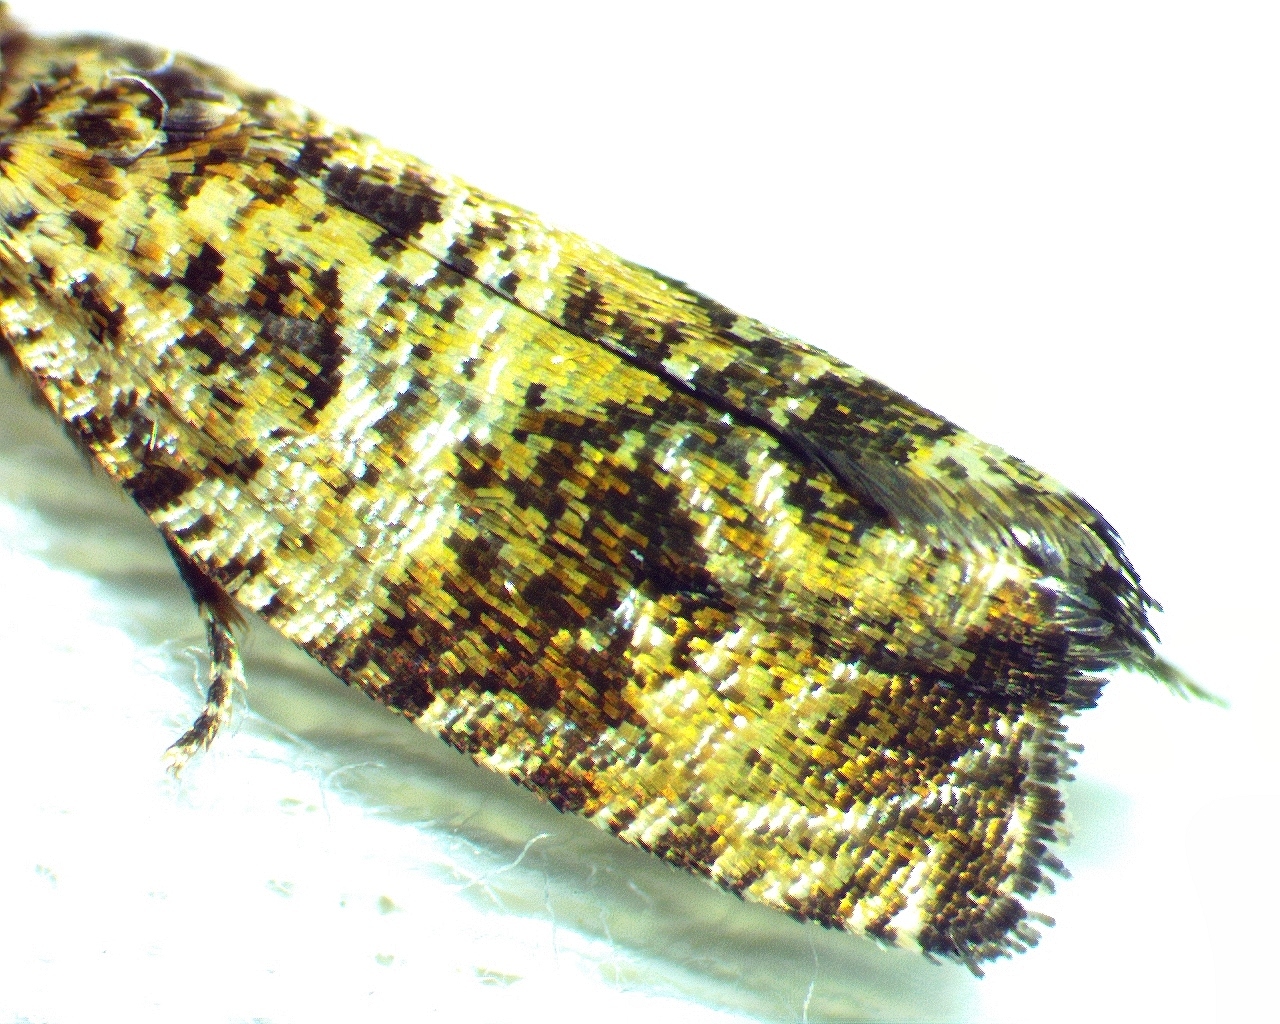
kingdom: Animalia
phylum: Arthropoda
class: Insecta
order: Lepidoptera
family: Tortricidae
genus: Celypha
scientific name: Celypha cespitana
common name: Thyme marble
